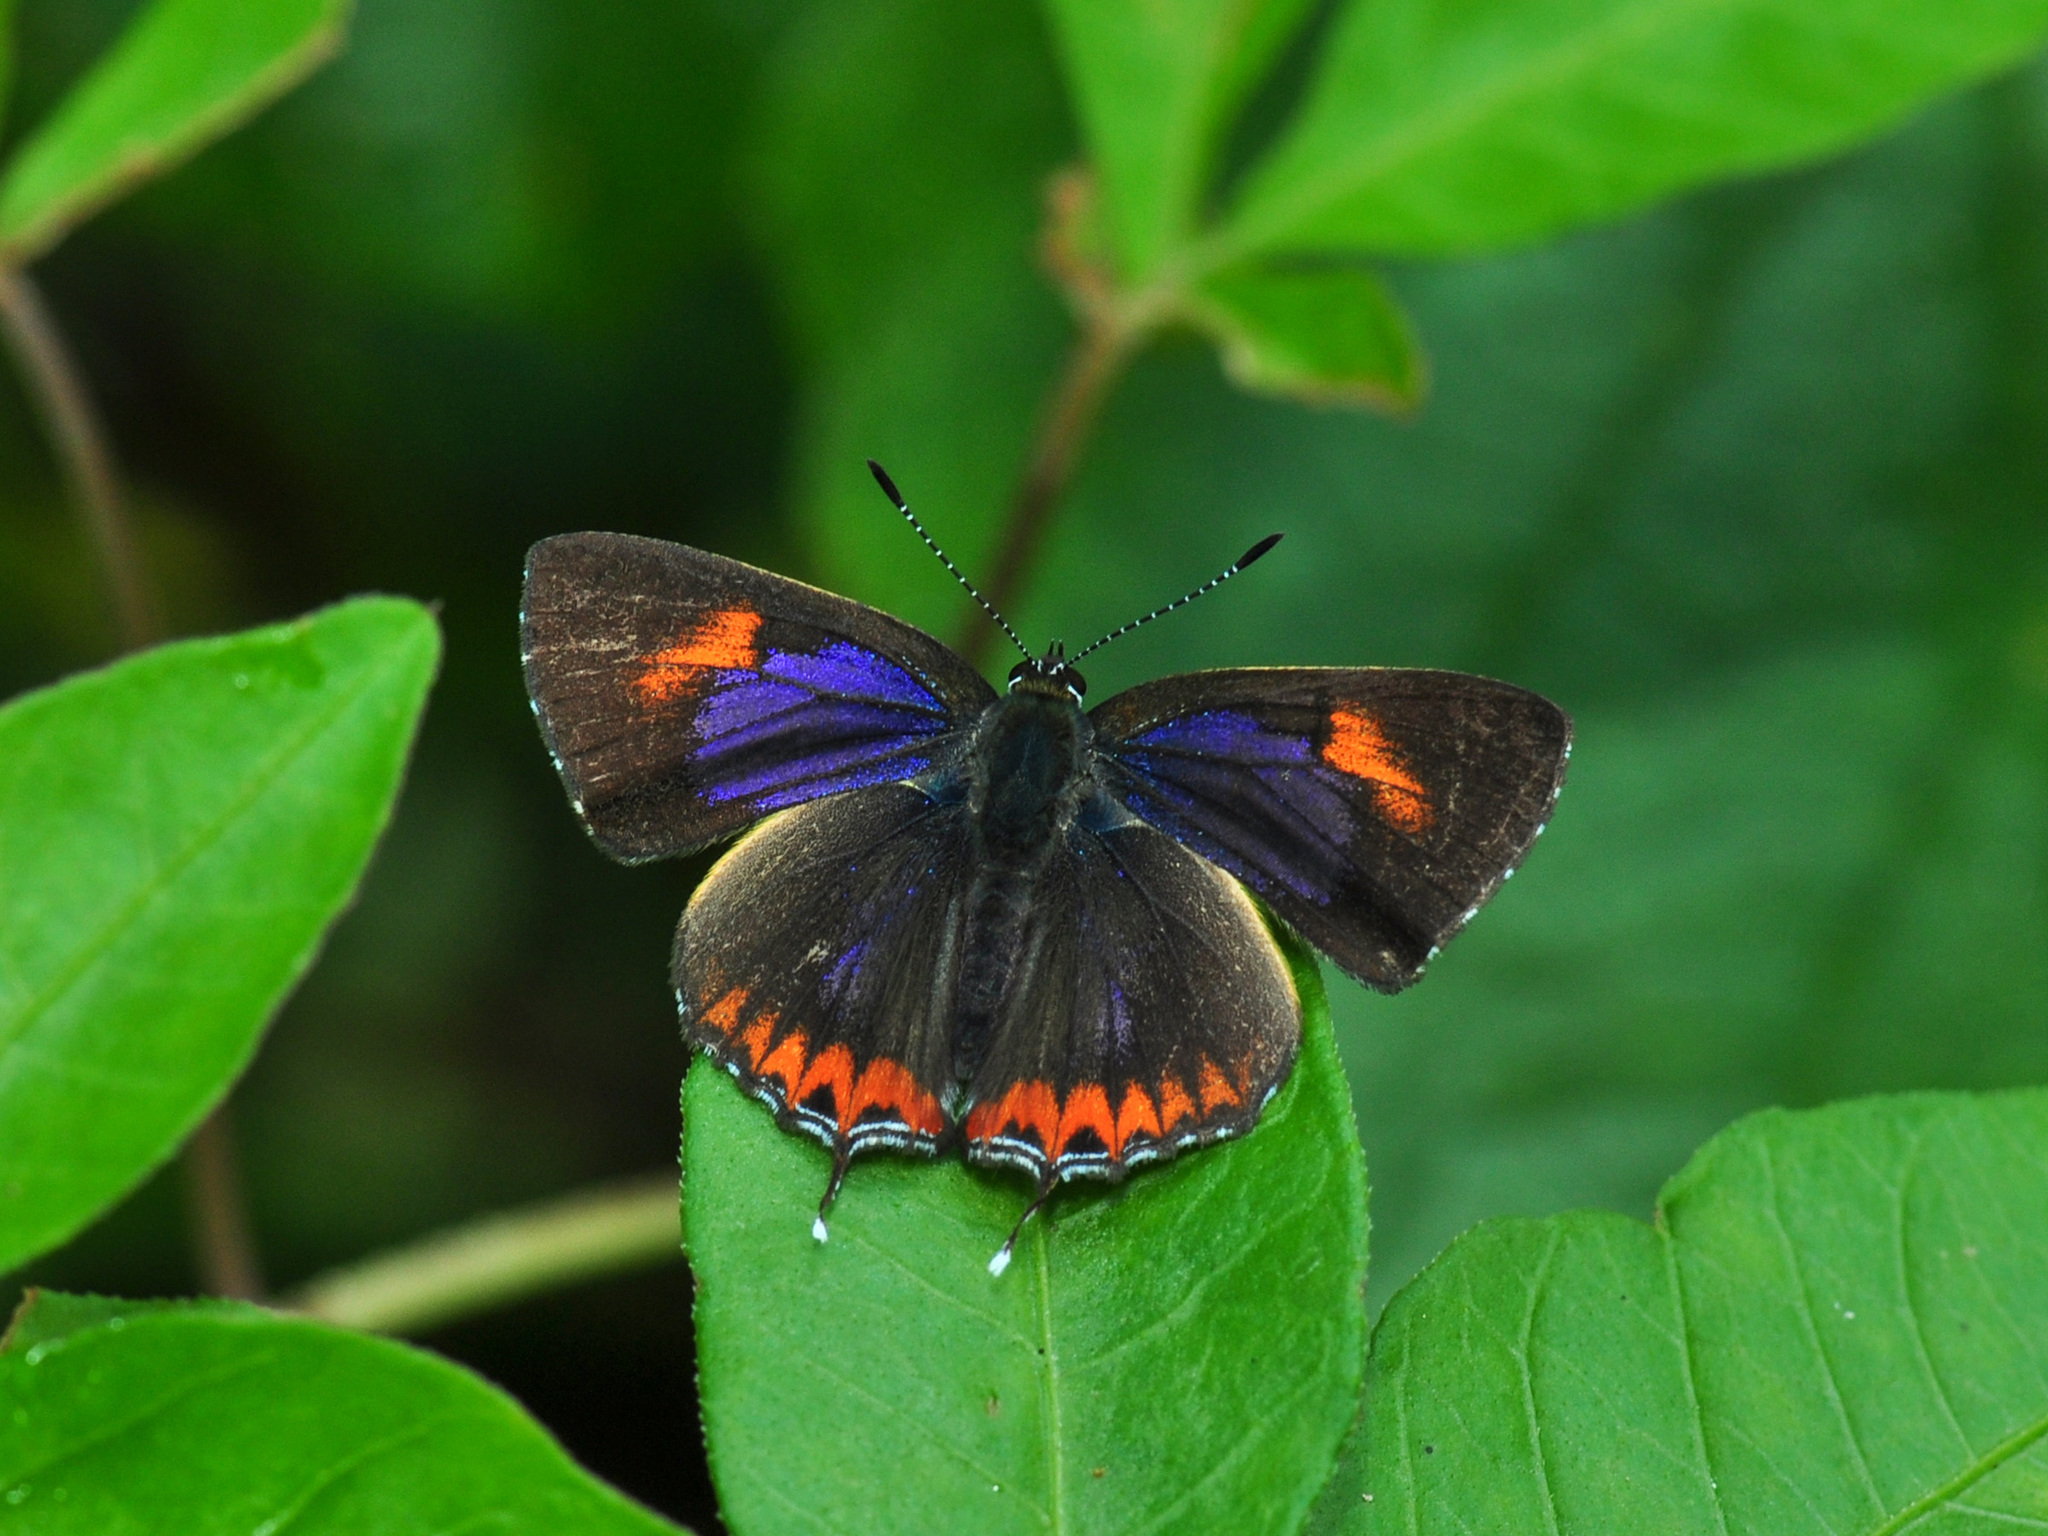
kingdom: Animalia
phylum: Arthropoda
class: Insecta
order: Lepidoptera
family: Lycaenidae
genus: Heliophorus
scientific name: Heliophorus epicles
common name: Purple sapphire
